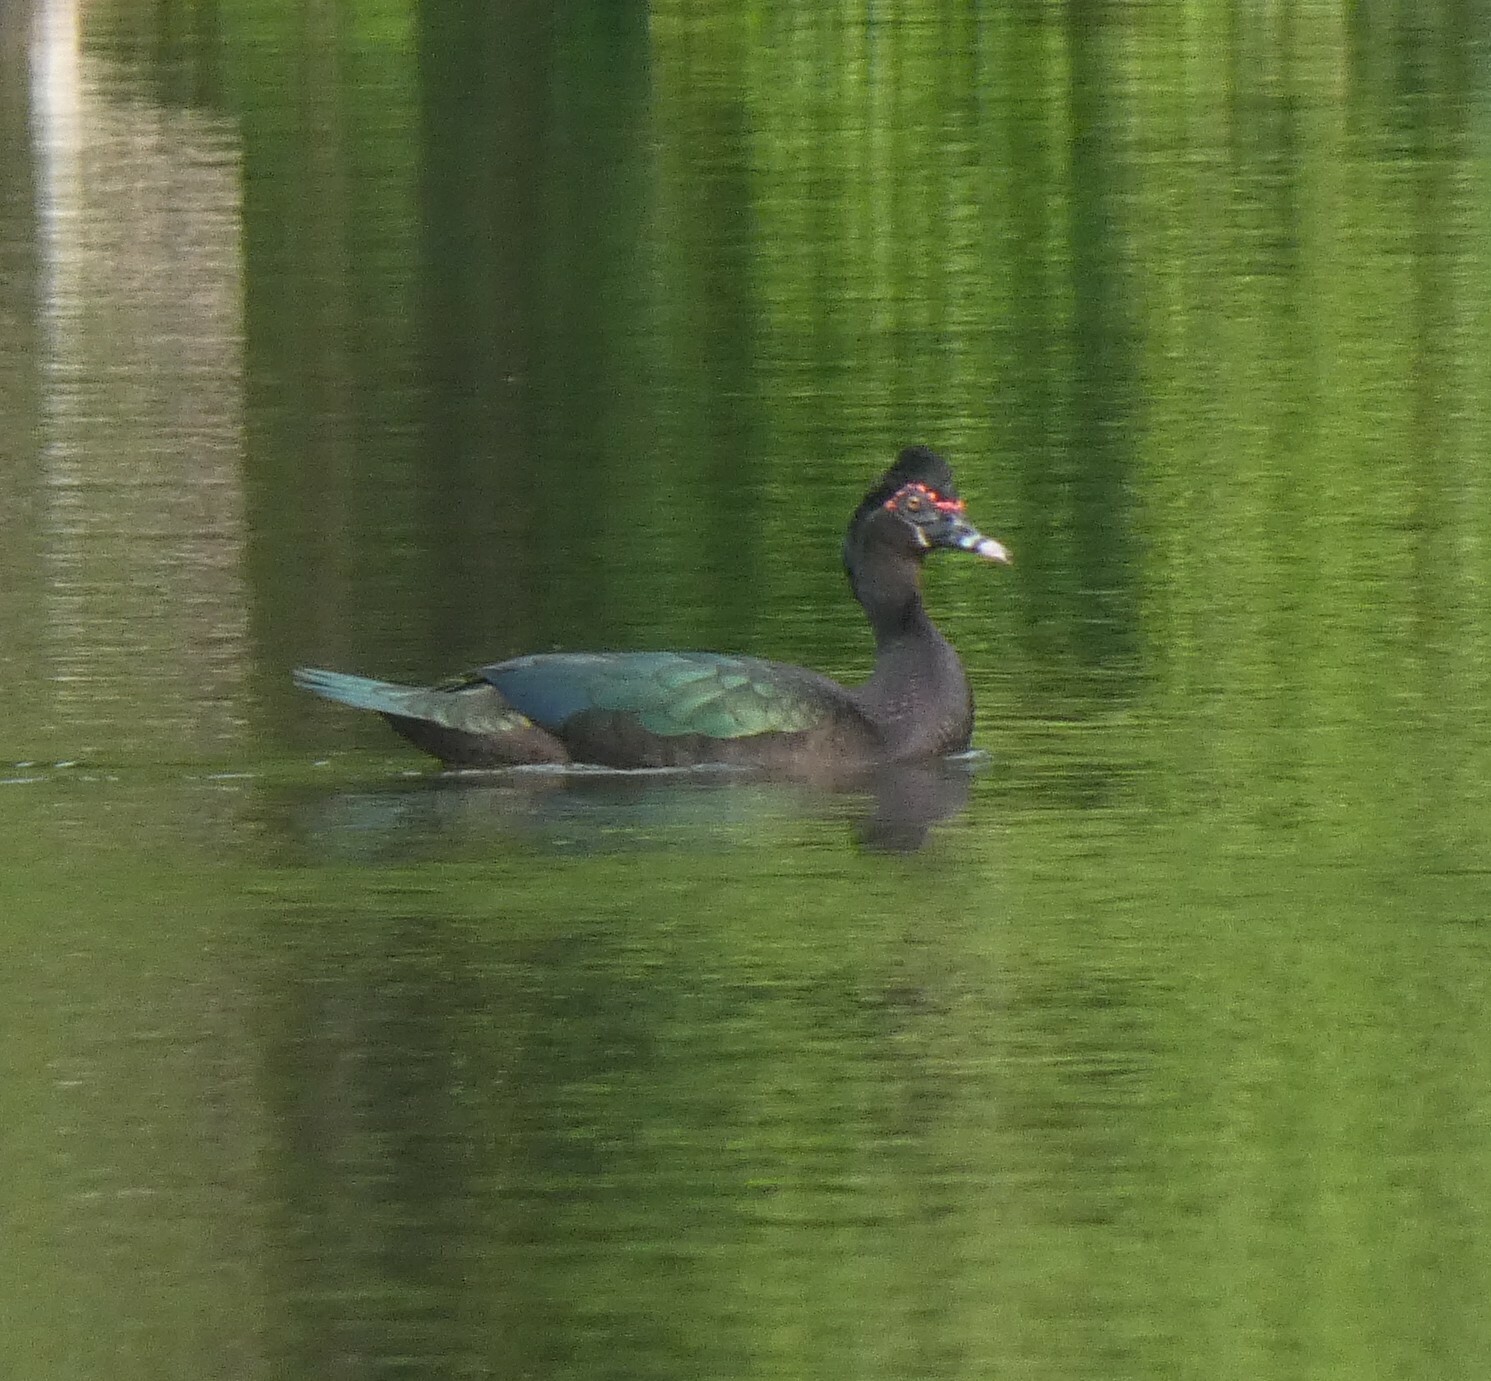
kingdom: Animalia
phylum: Chordata
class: Aves
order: Anseriformes
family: Anatidae
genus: Cairina
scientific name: Cairina moschata
